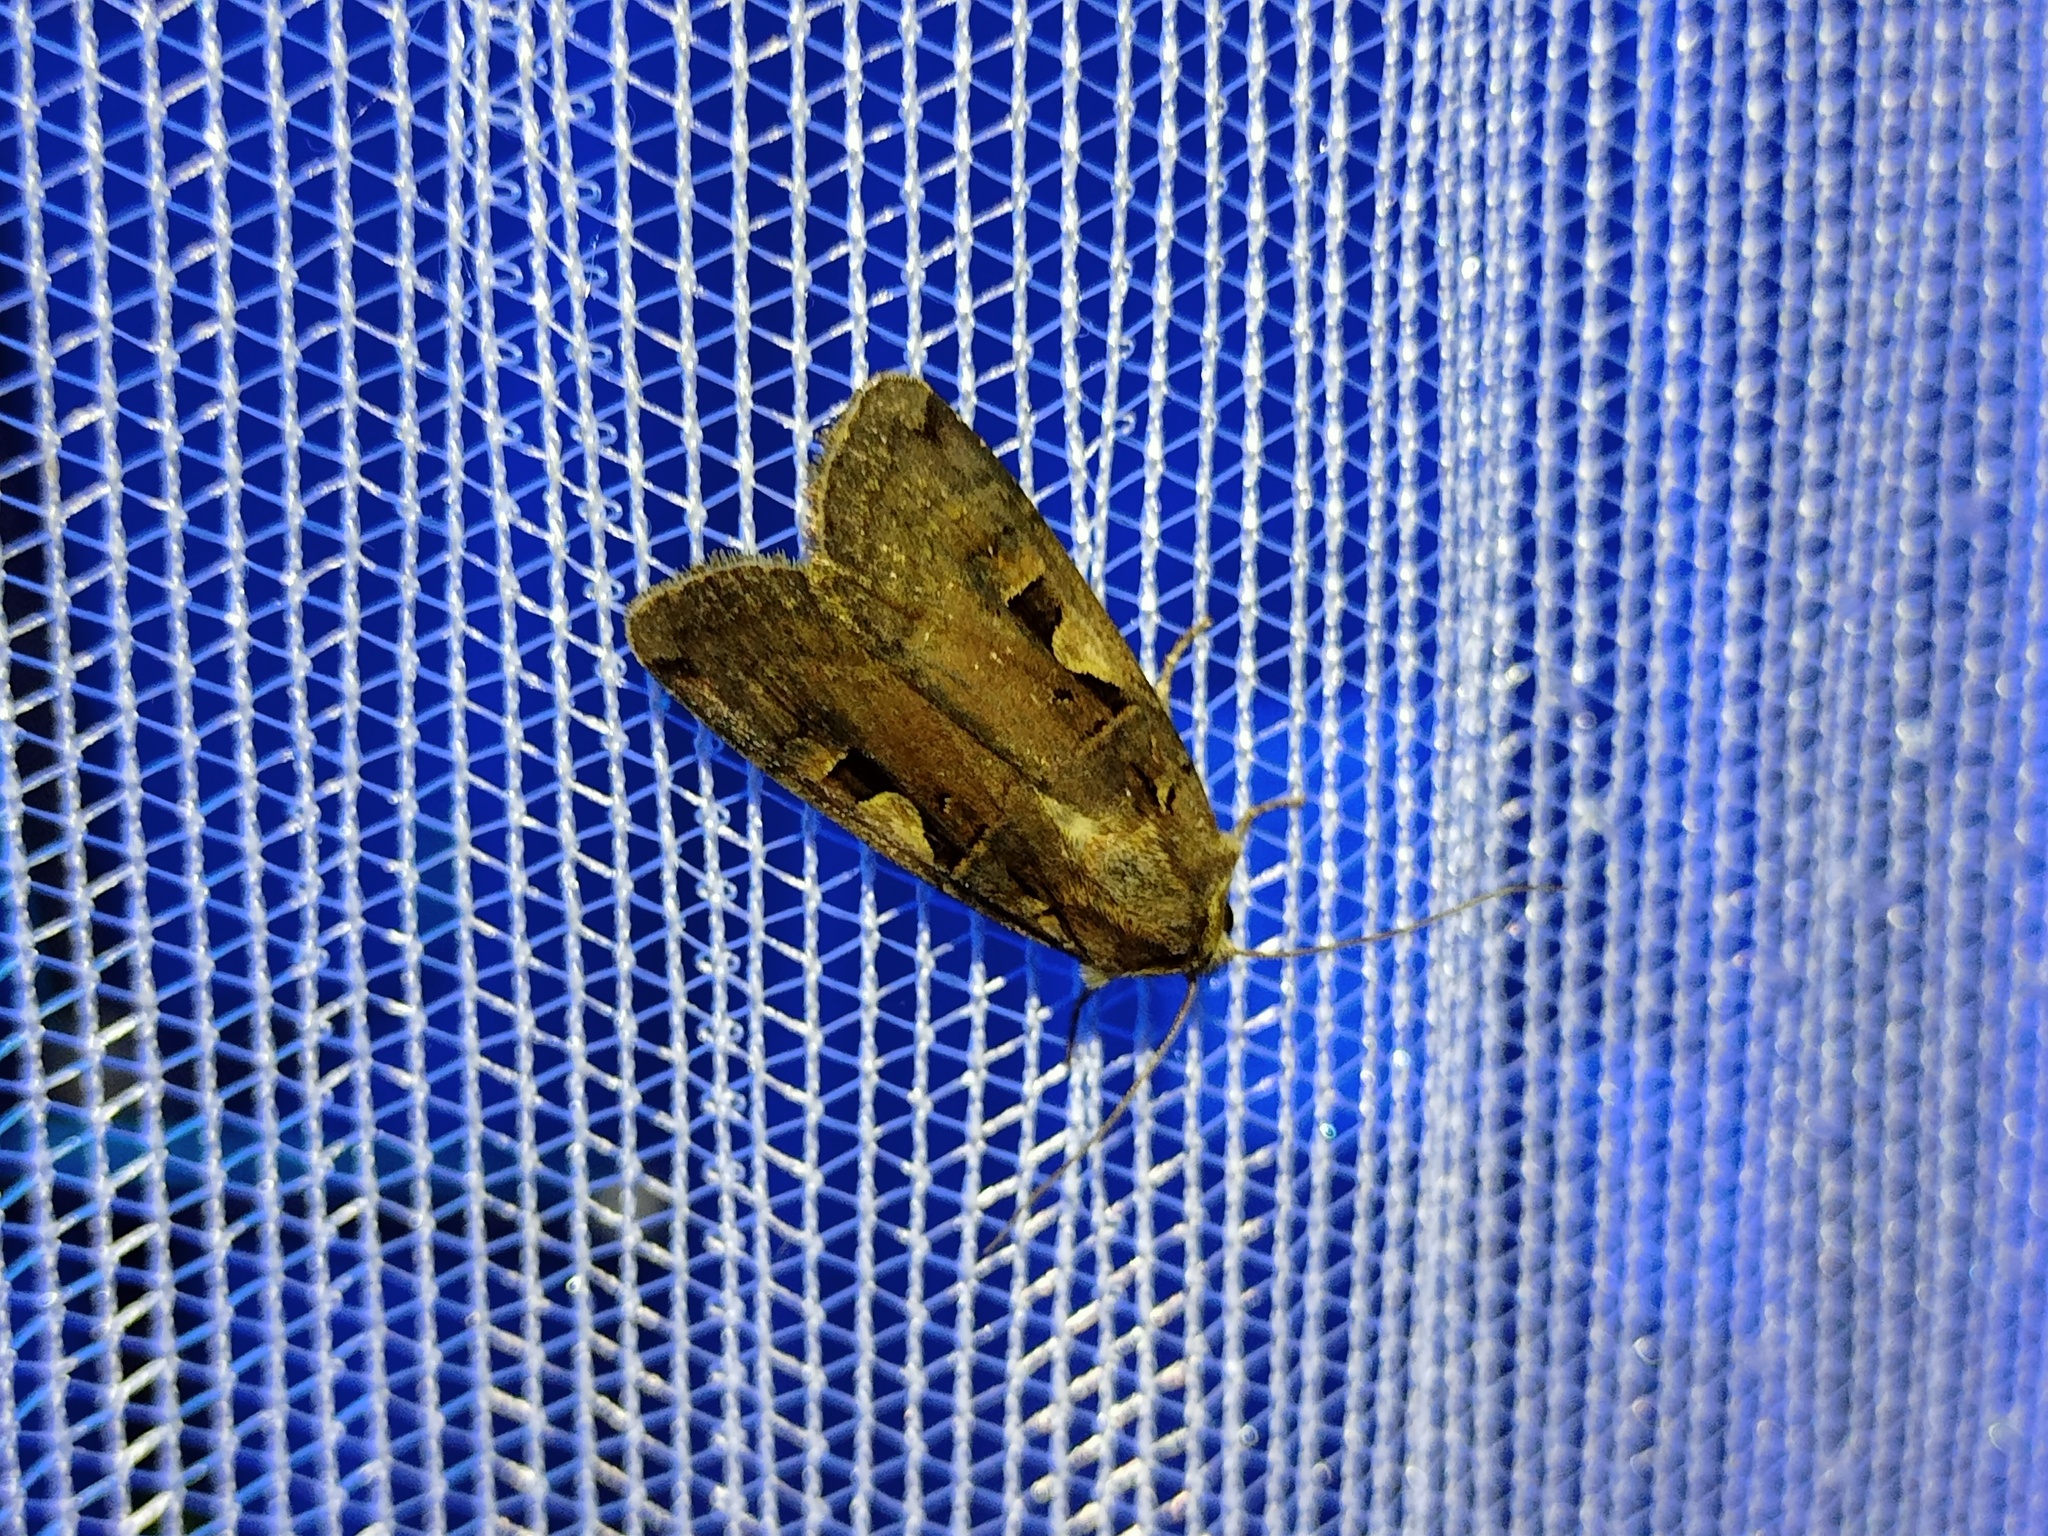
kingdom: Animalia
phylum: Arthropoda
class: Insecta
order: Lepidoptera
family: Noctuidae
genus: Xestia
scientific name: Xestia c-nigrum
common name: Setaceous hebrew character
